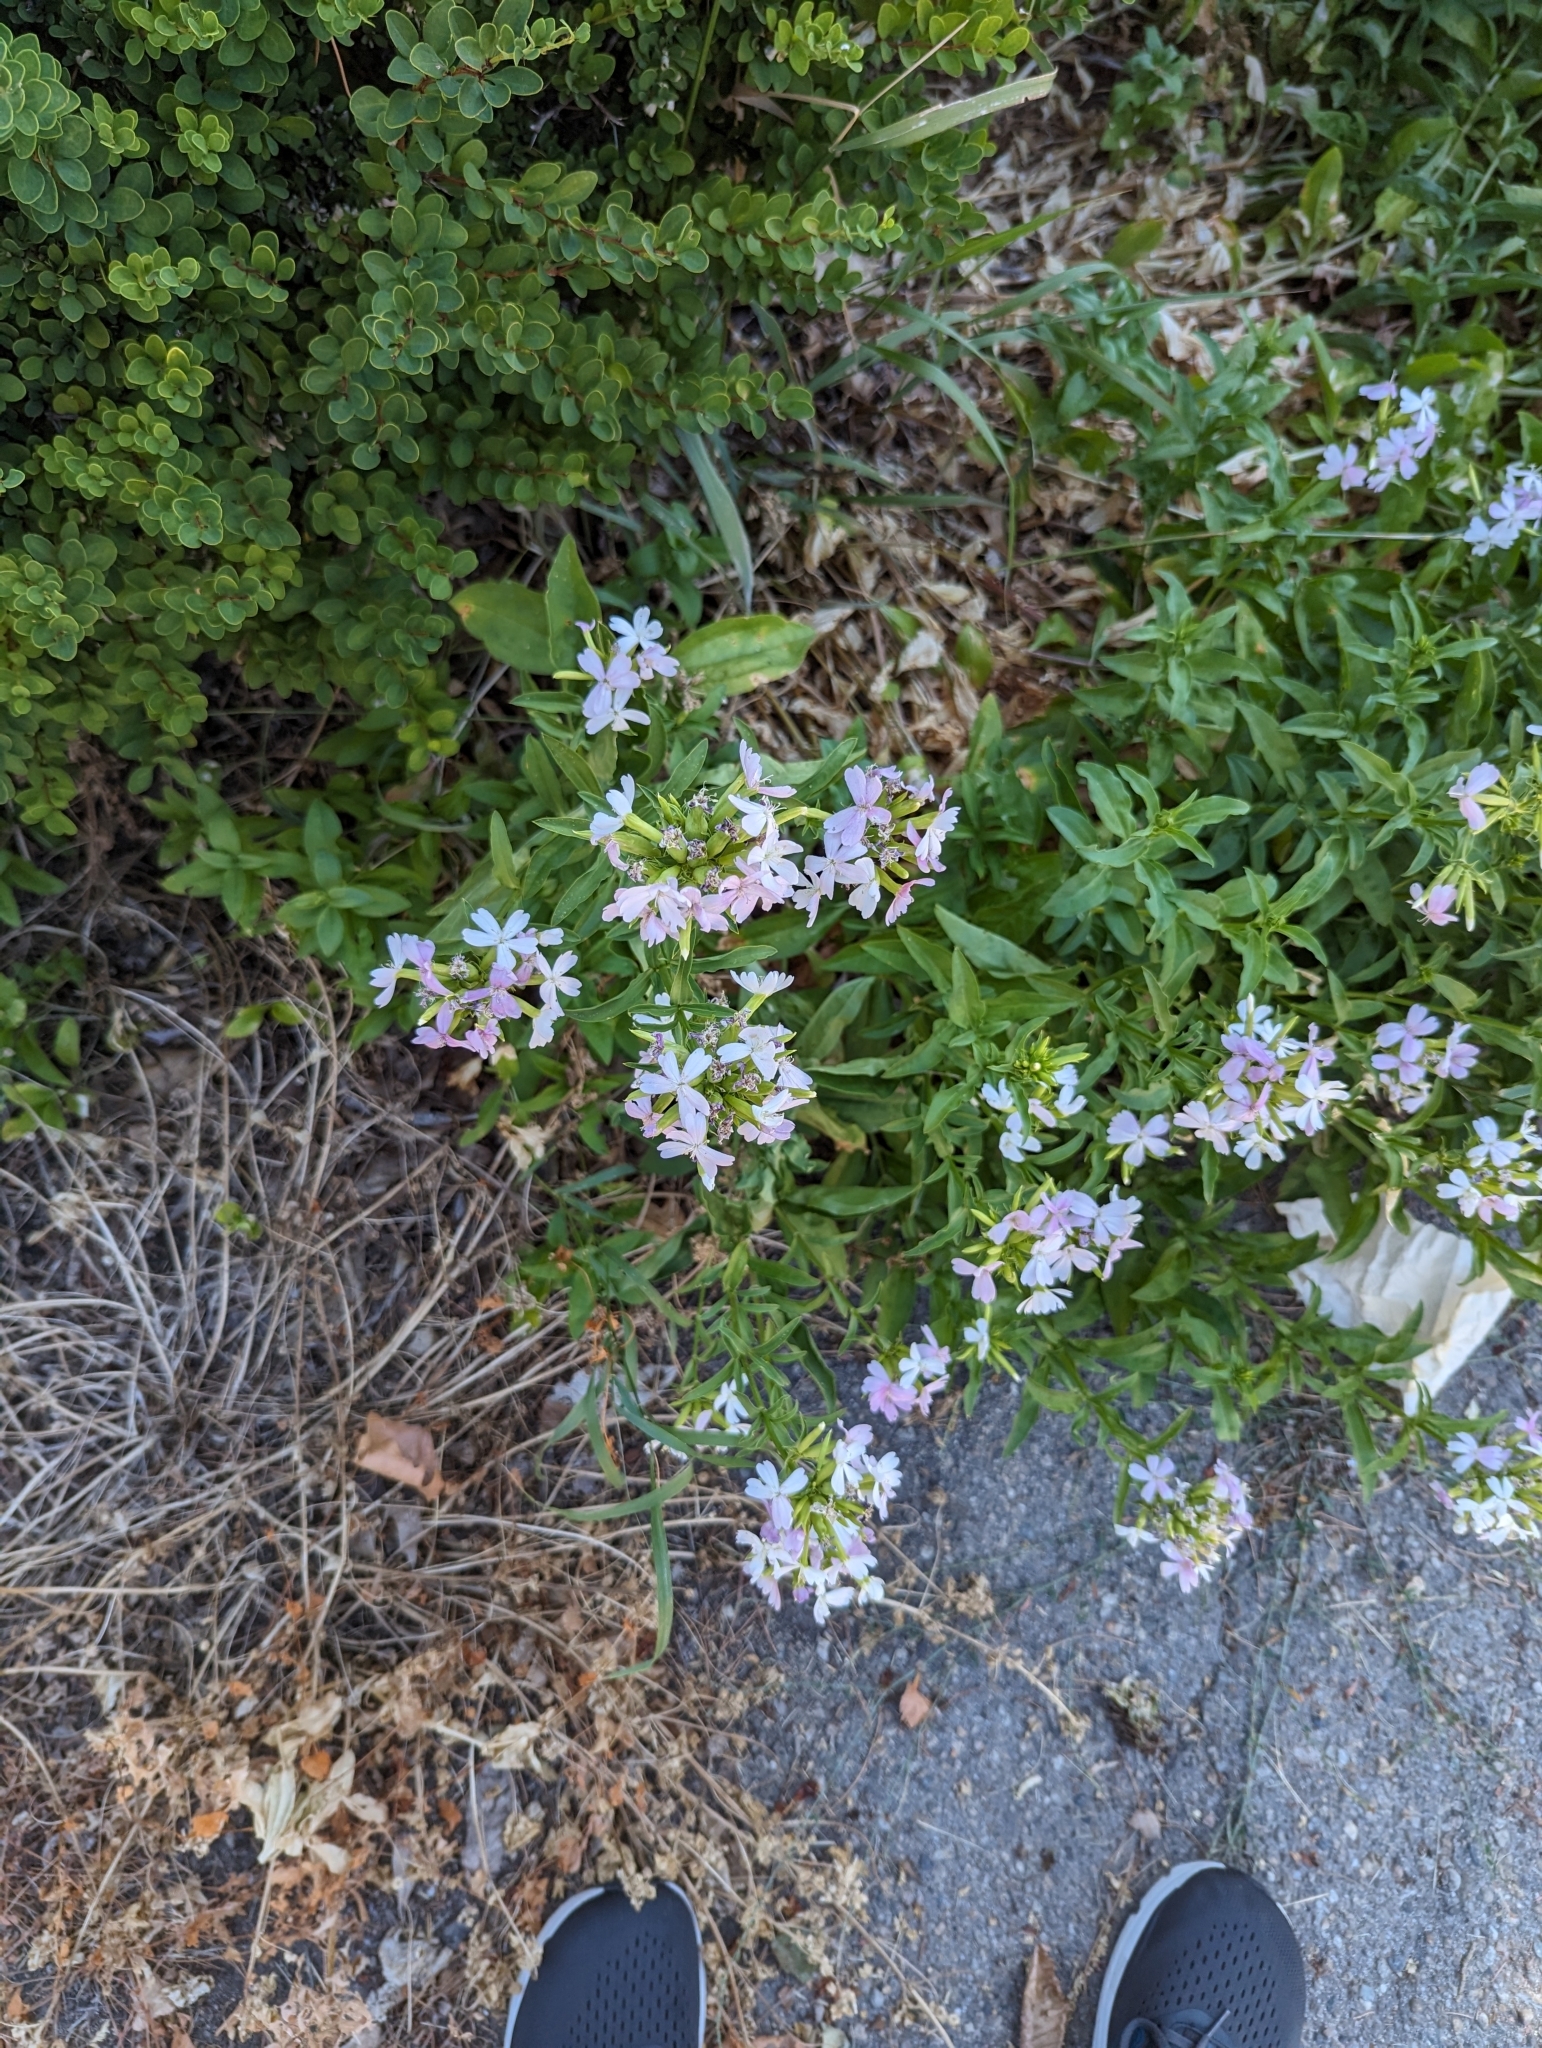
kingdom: Plantae
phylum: Tracheophyta
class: Magnoliopsida
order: Caryophyllales
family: Caryophyllaceae
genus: Saponaria
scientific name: Saponaria officinalis
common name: Soapwort
